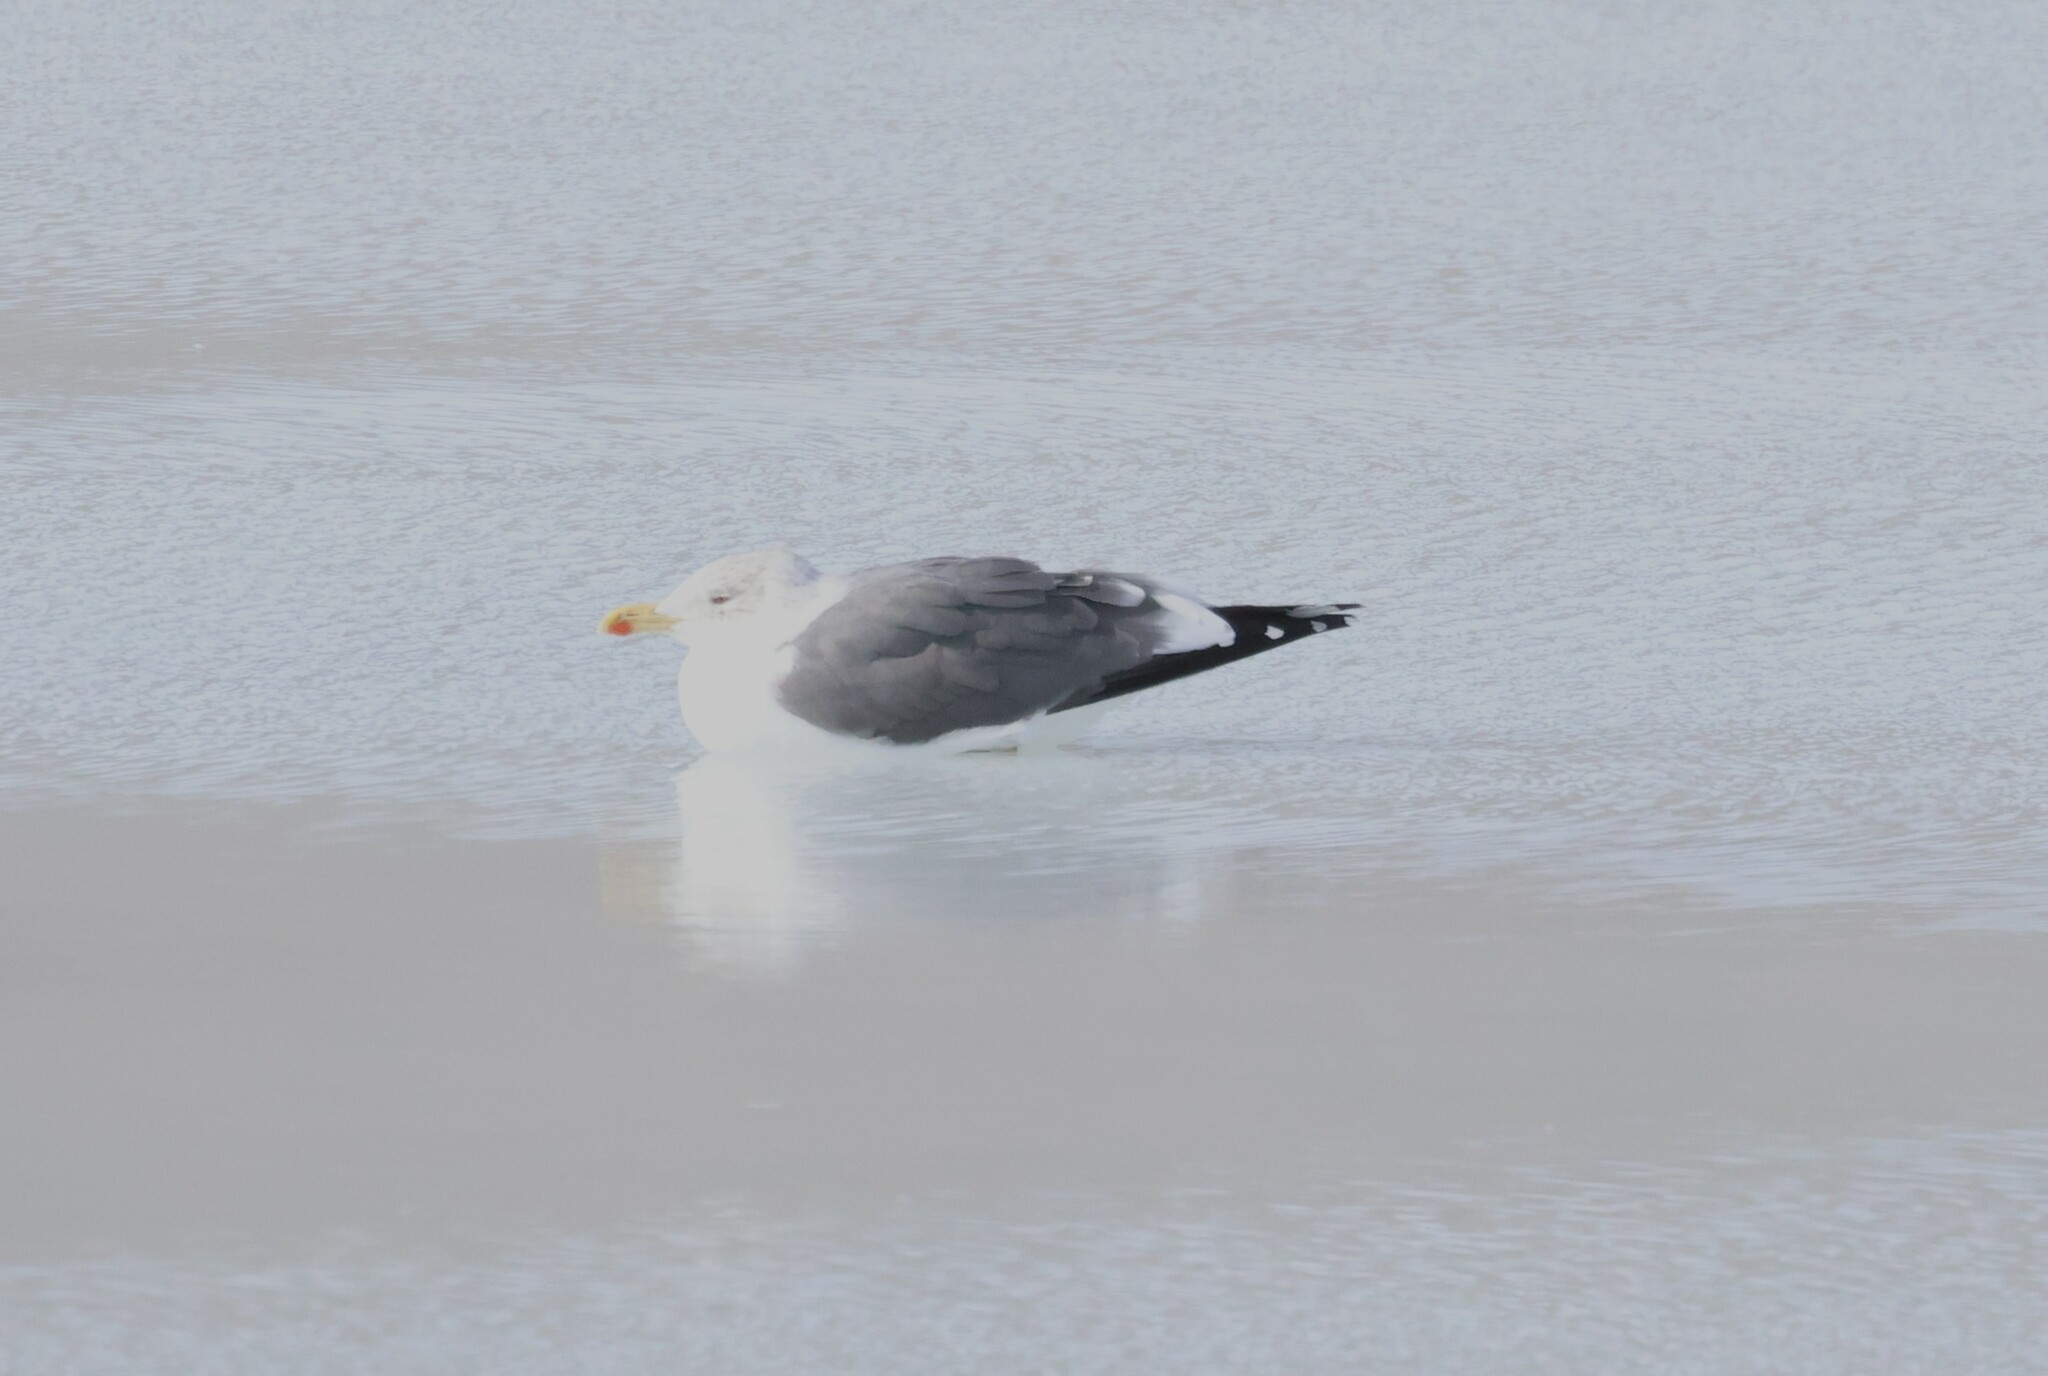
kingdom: Animalia
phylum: Chordata
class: Aves
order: Charadriiformes
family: Laridae
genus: Larus
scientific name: Larus fuscus
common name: Lesser black-backed gull
